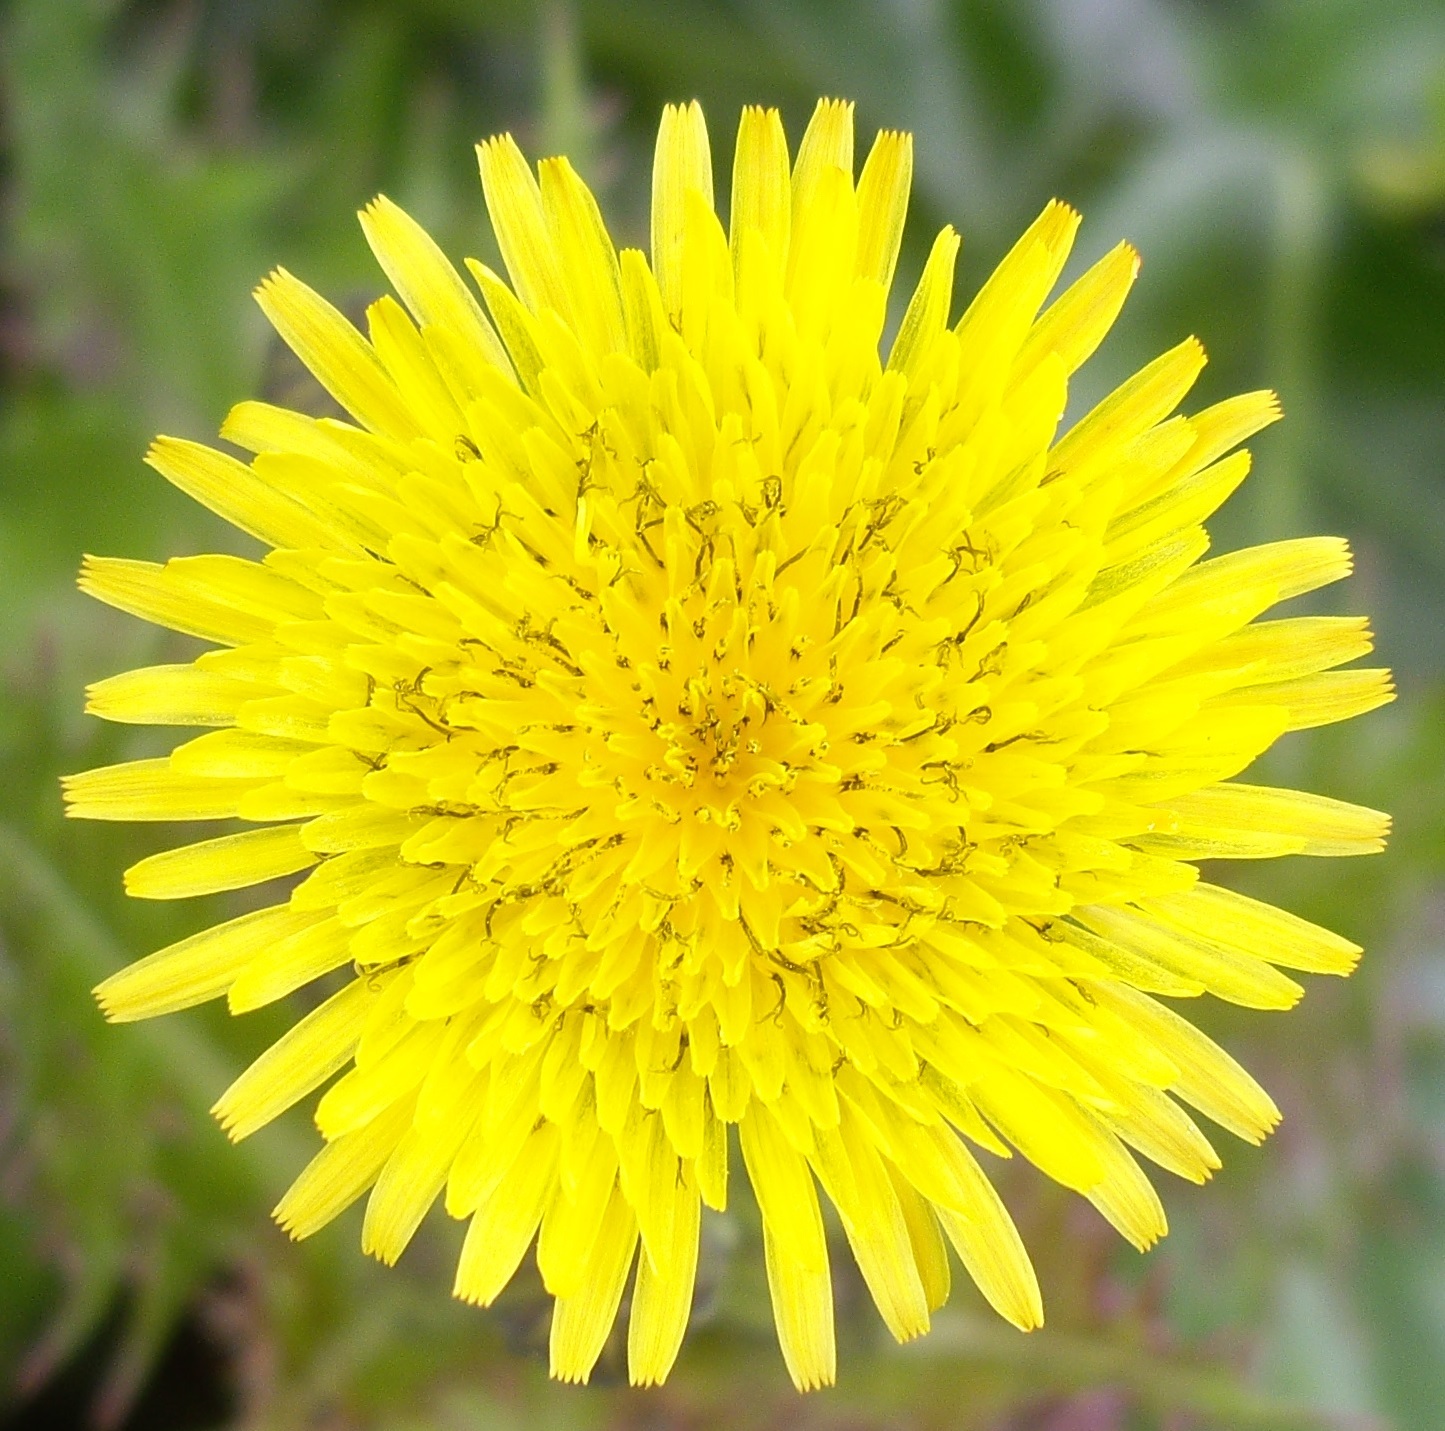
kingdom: Plantae
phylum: Tracheophyta
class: Magnoliopsida
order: Asterales
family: Asteraceae
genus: Sonchus
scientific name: Sonchus asper
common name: Prickly sow-thistle
